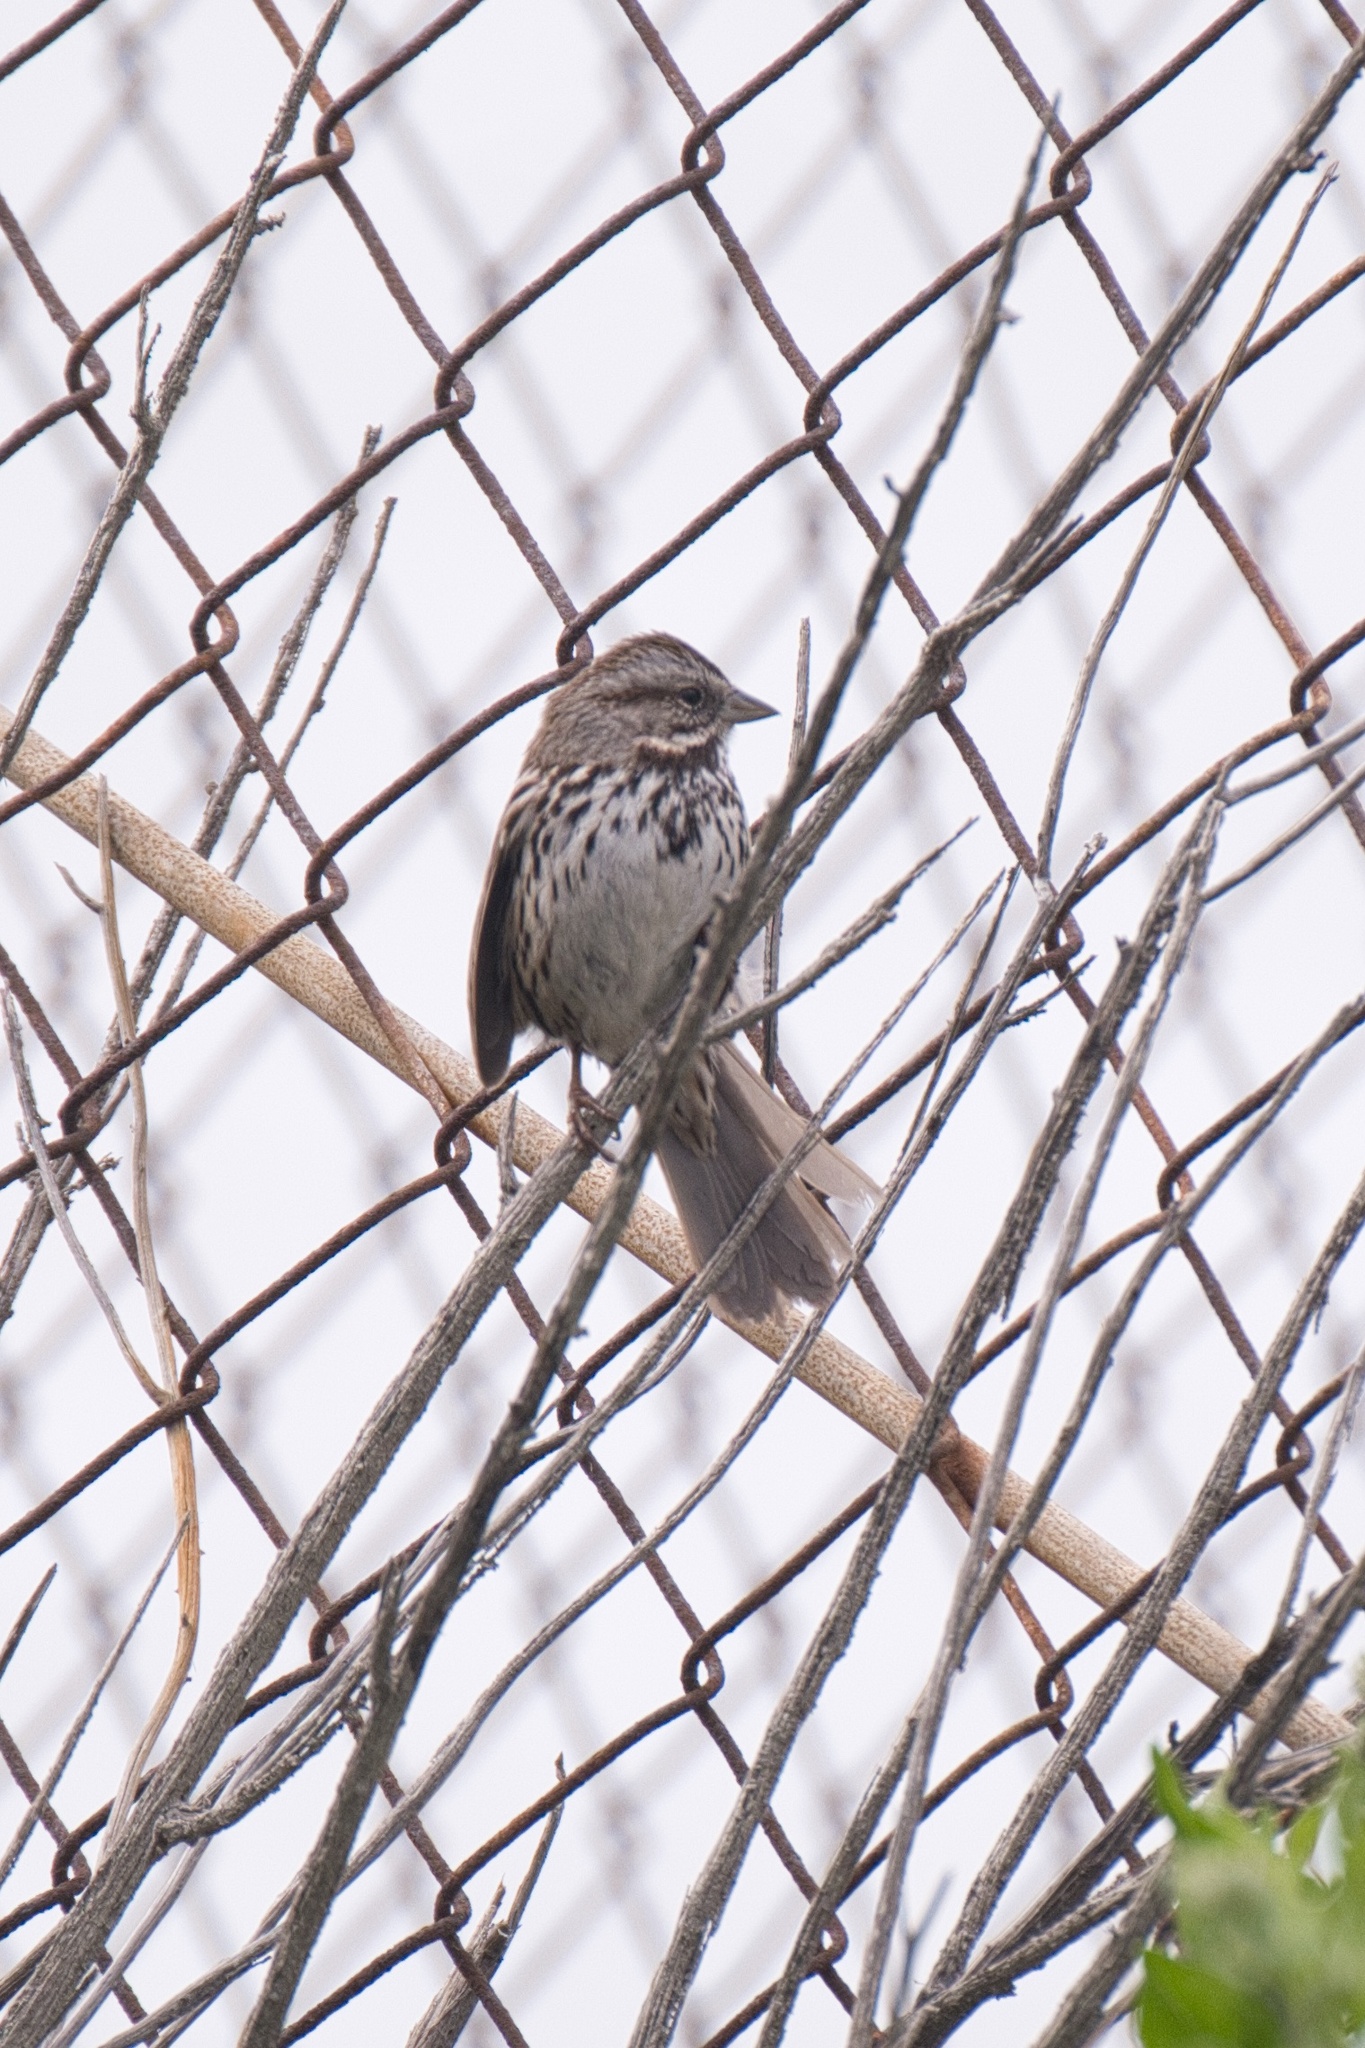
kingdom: Animalia
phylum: Chordata
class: Aves
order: Passeriformes
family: Passerellidae
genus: Melospiza
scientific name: Melospiza melodia
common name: Song sparrow
